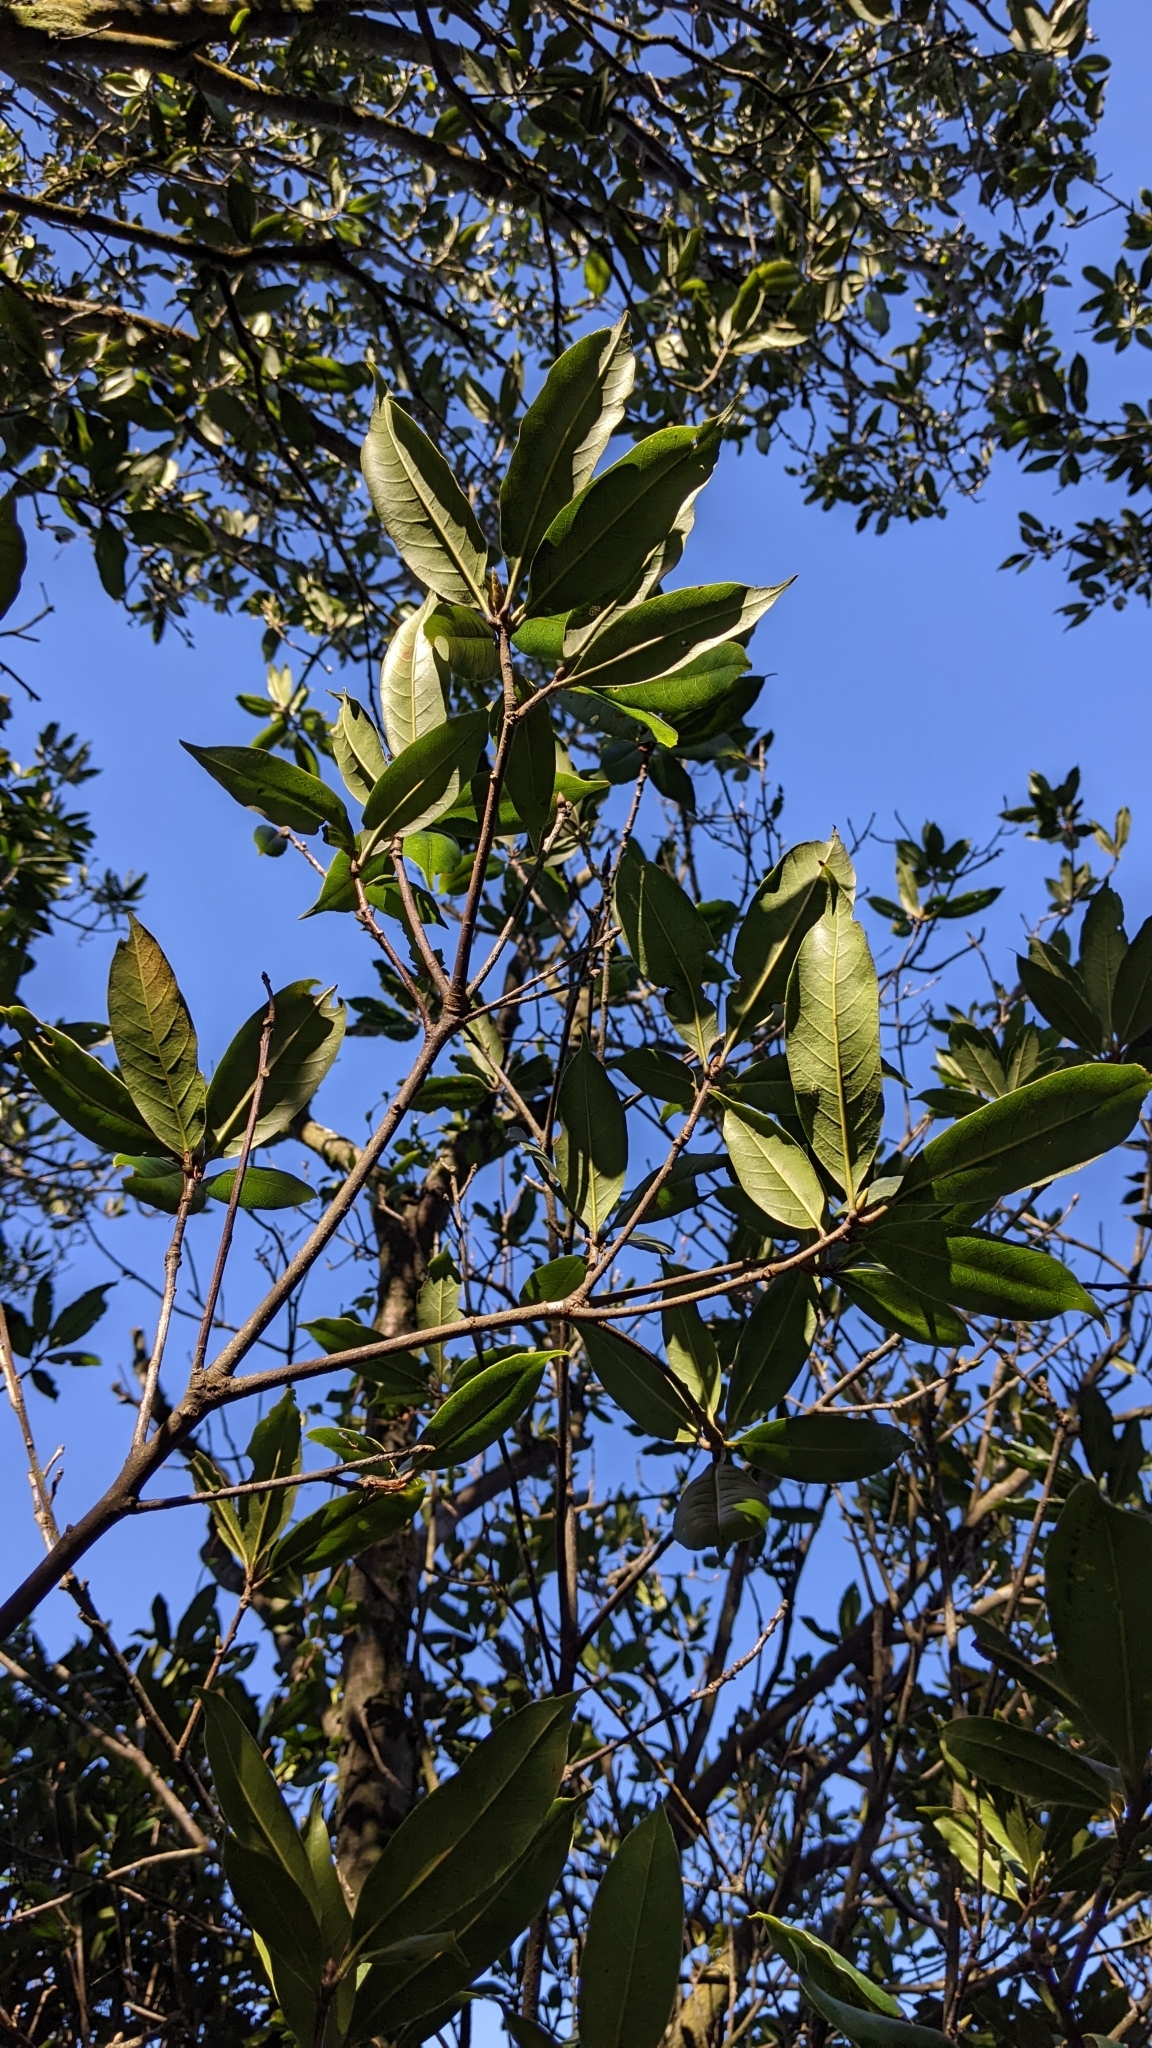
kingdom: Plantae
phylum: Tracheophyta
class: Magnoliopsida
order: Fagales
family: Fagaceae
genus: Quercus
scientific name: Quercus sessilifolia
